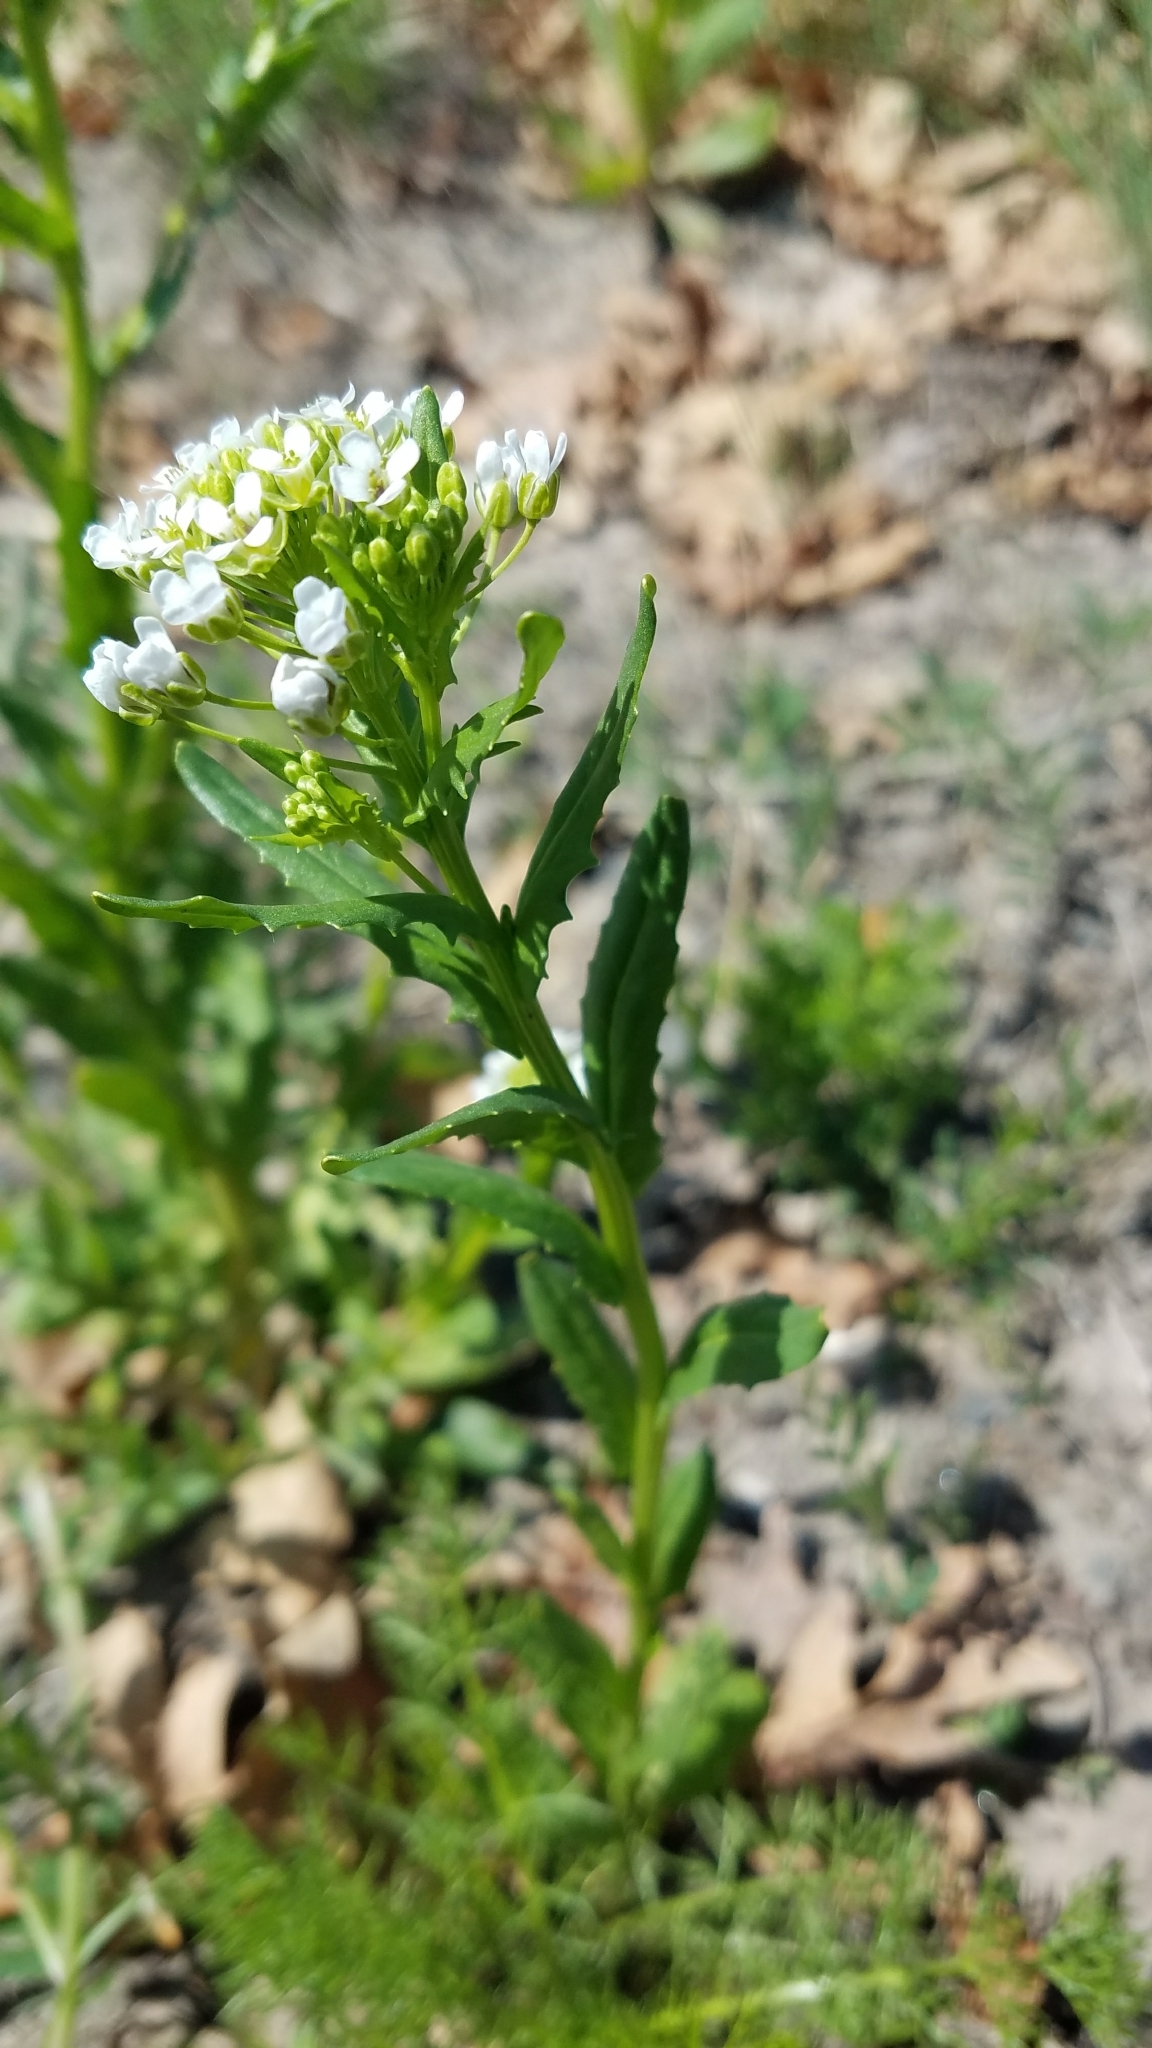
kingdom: Plantae
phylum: Tracheophyta
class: Magnoliopsida
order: Brassicales
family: Brassicaceae
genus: Thlaspi
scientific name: Thlaspi arvense
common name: Field pennycress
